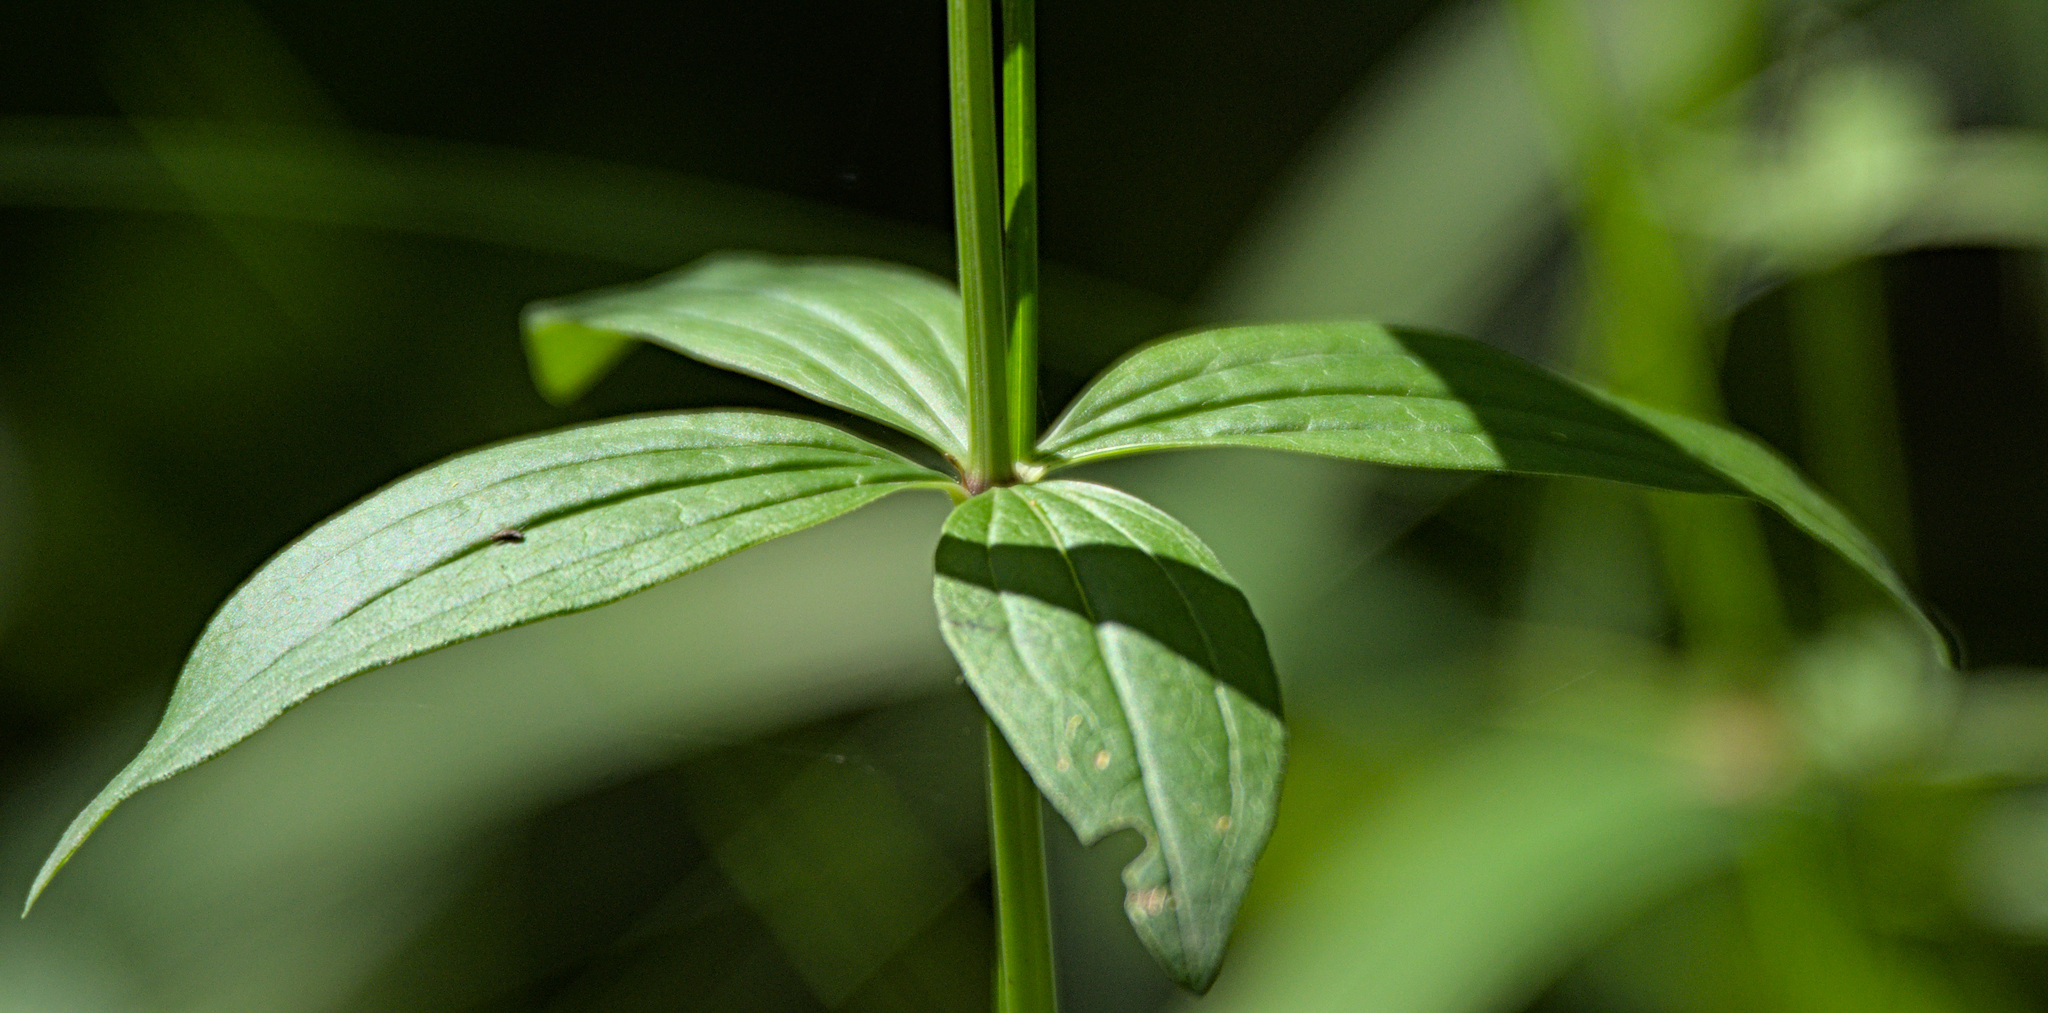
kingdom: Plantae
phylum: Tracheophyta
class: Magnoliopsida
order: Gentianales
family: Rubiaceae
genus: Galium
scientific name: Galium rubioides
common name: European bedstraw
